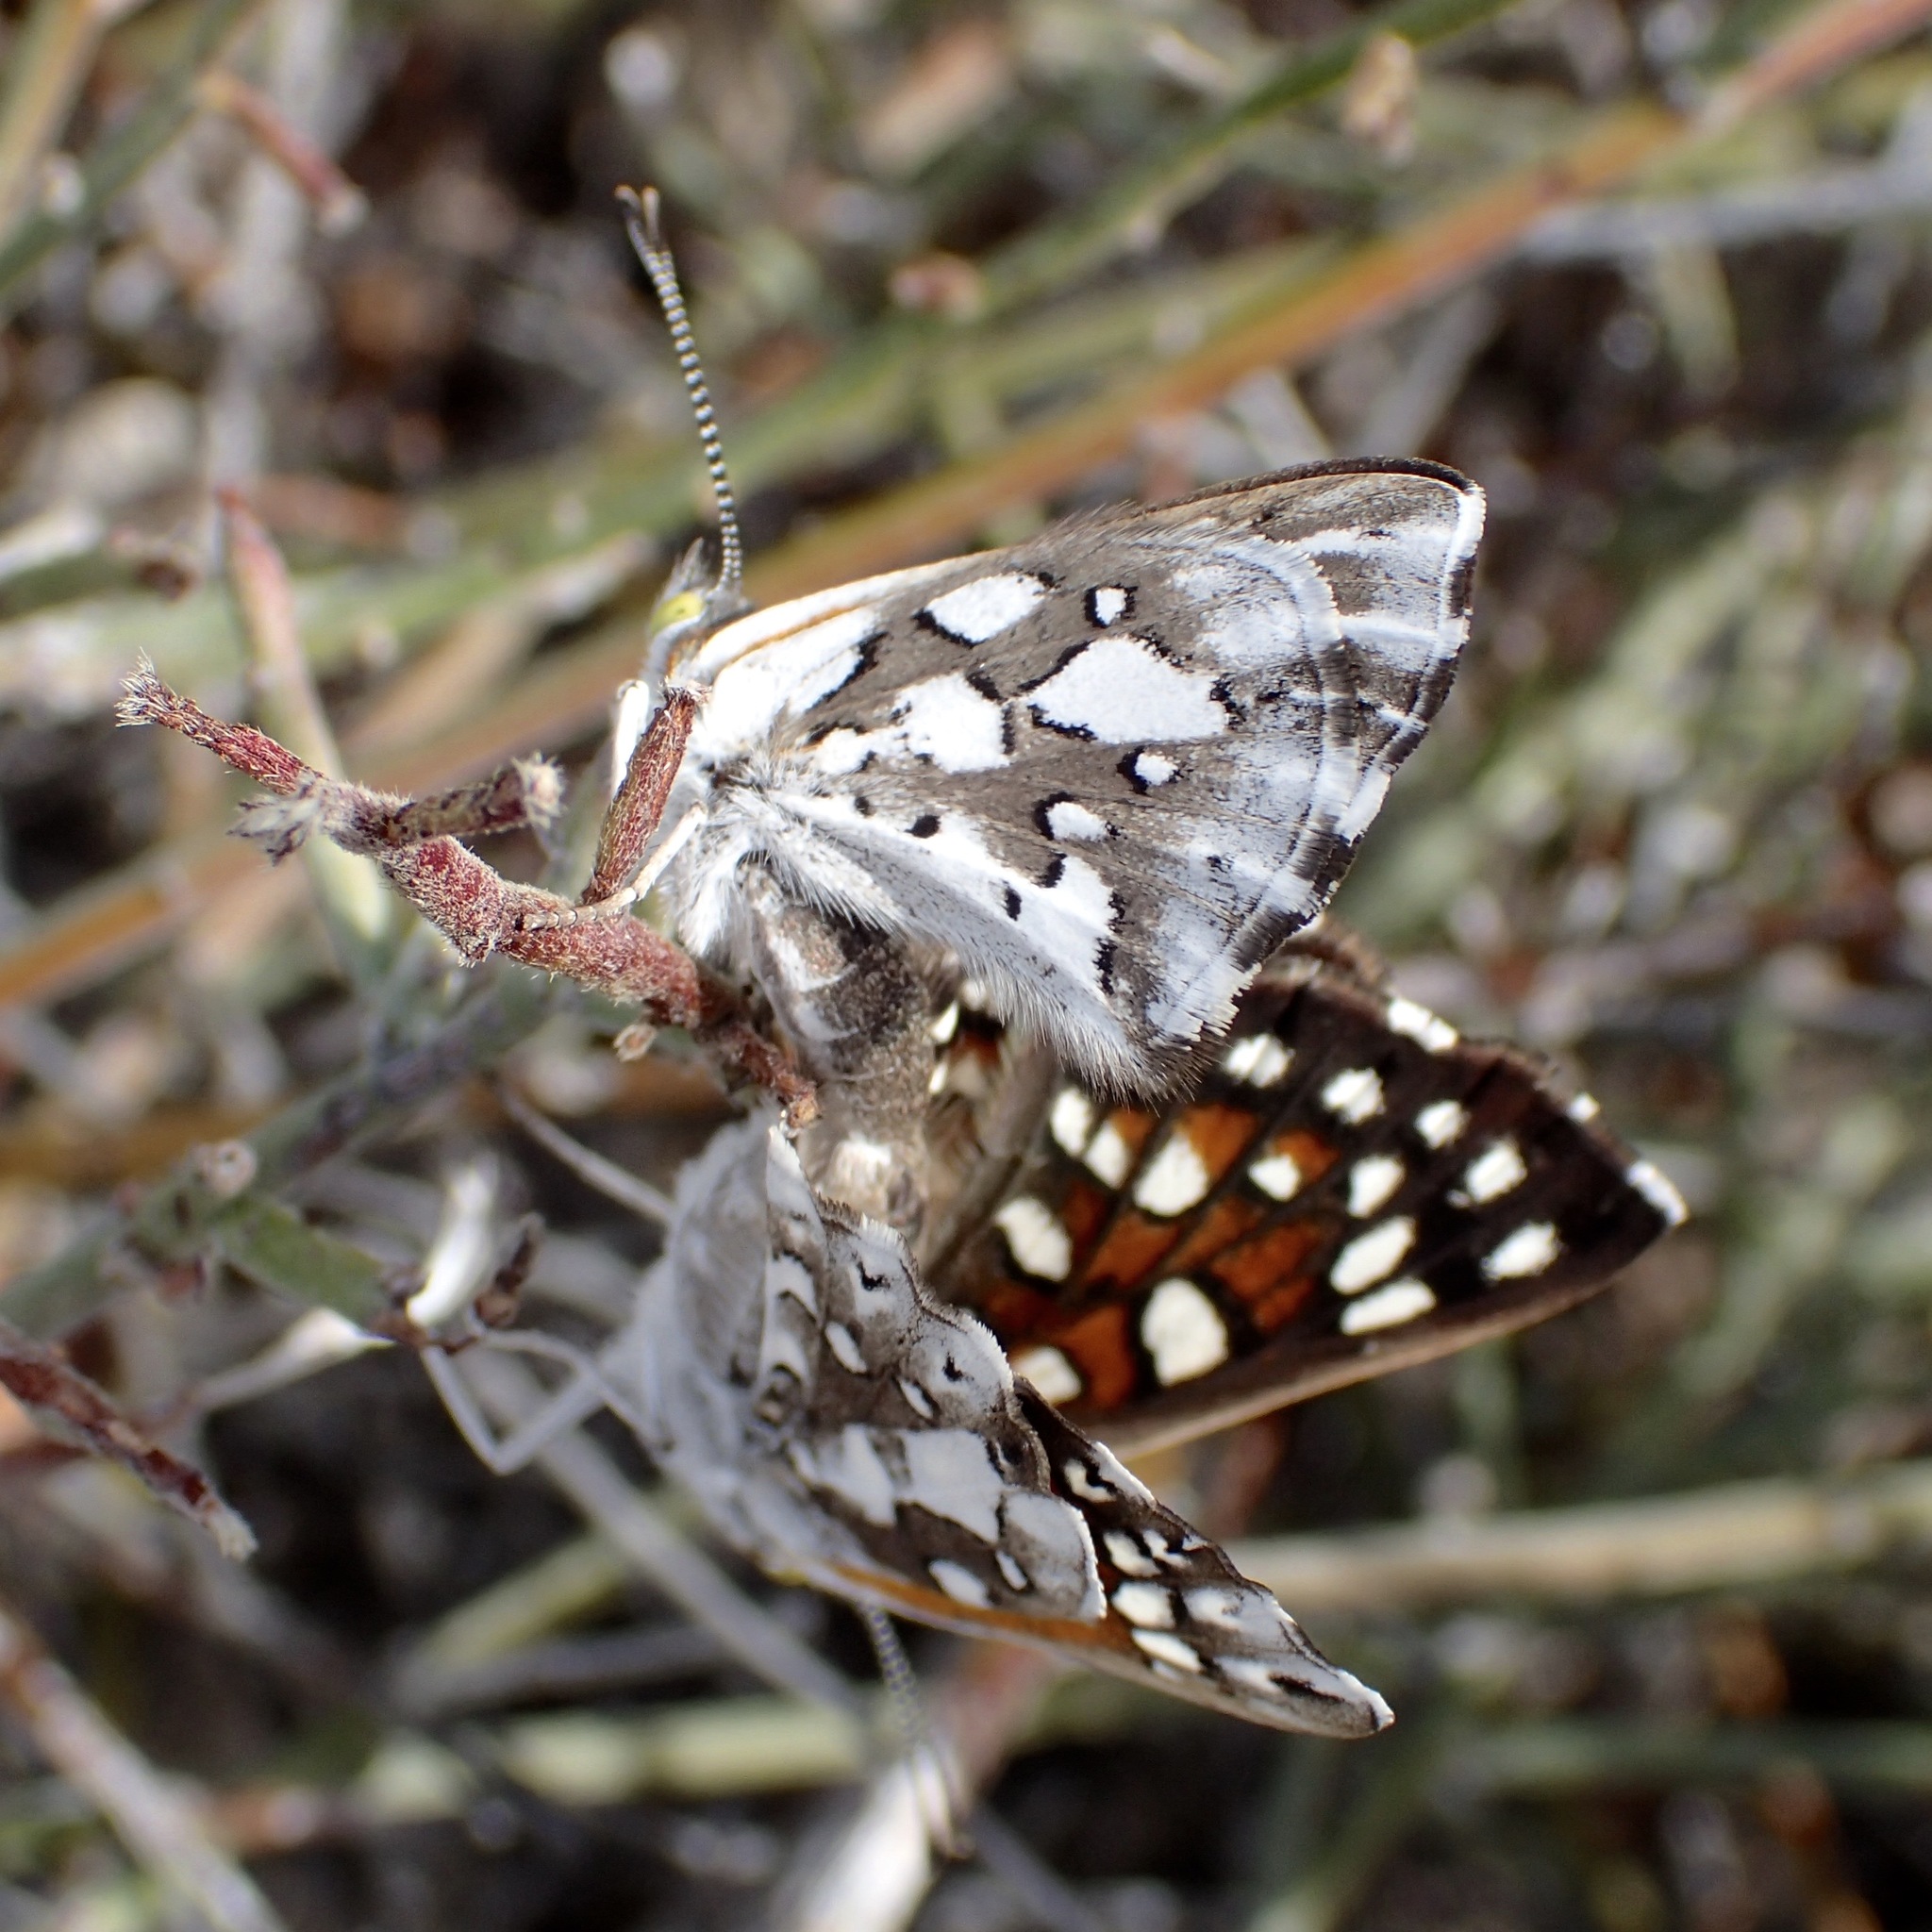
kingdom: Animalia
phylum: Arthropoda
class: Insecta
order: Lepidoptera
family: Riodinidae
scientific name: Riodinidae
